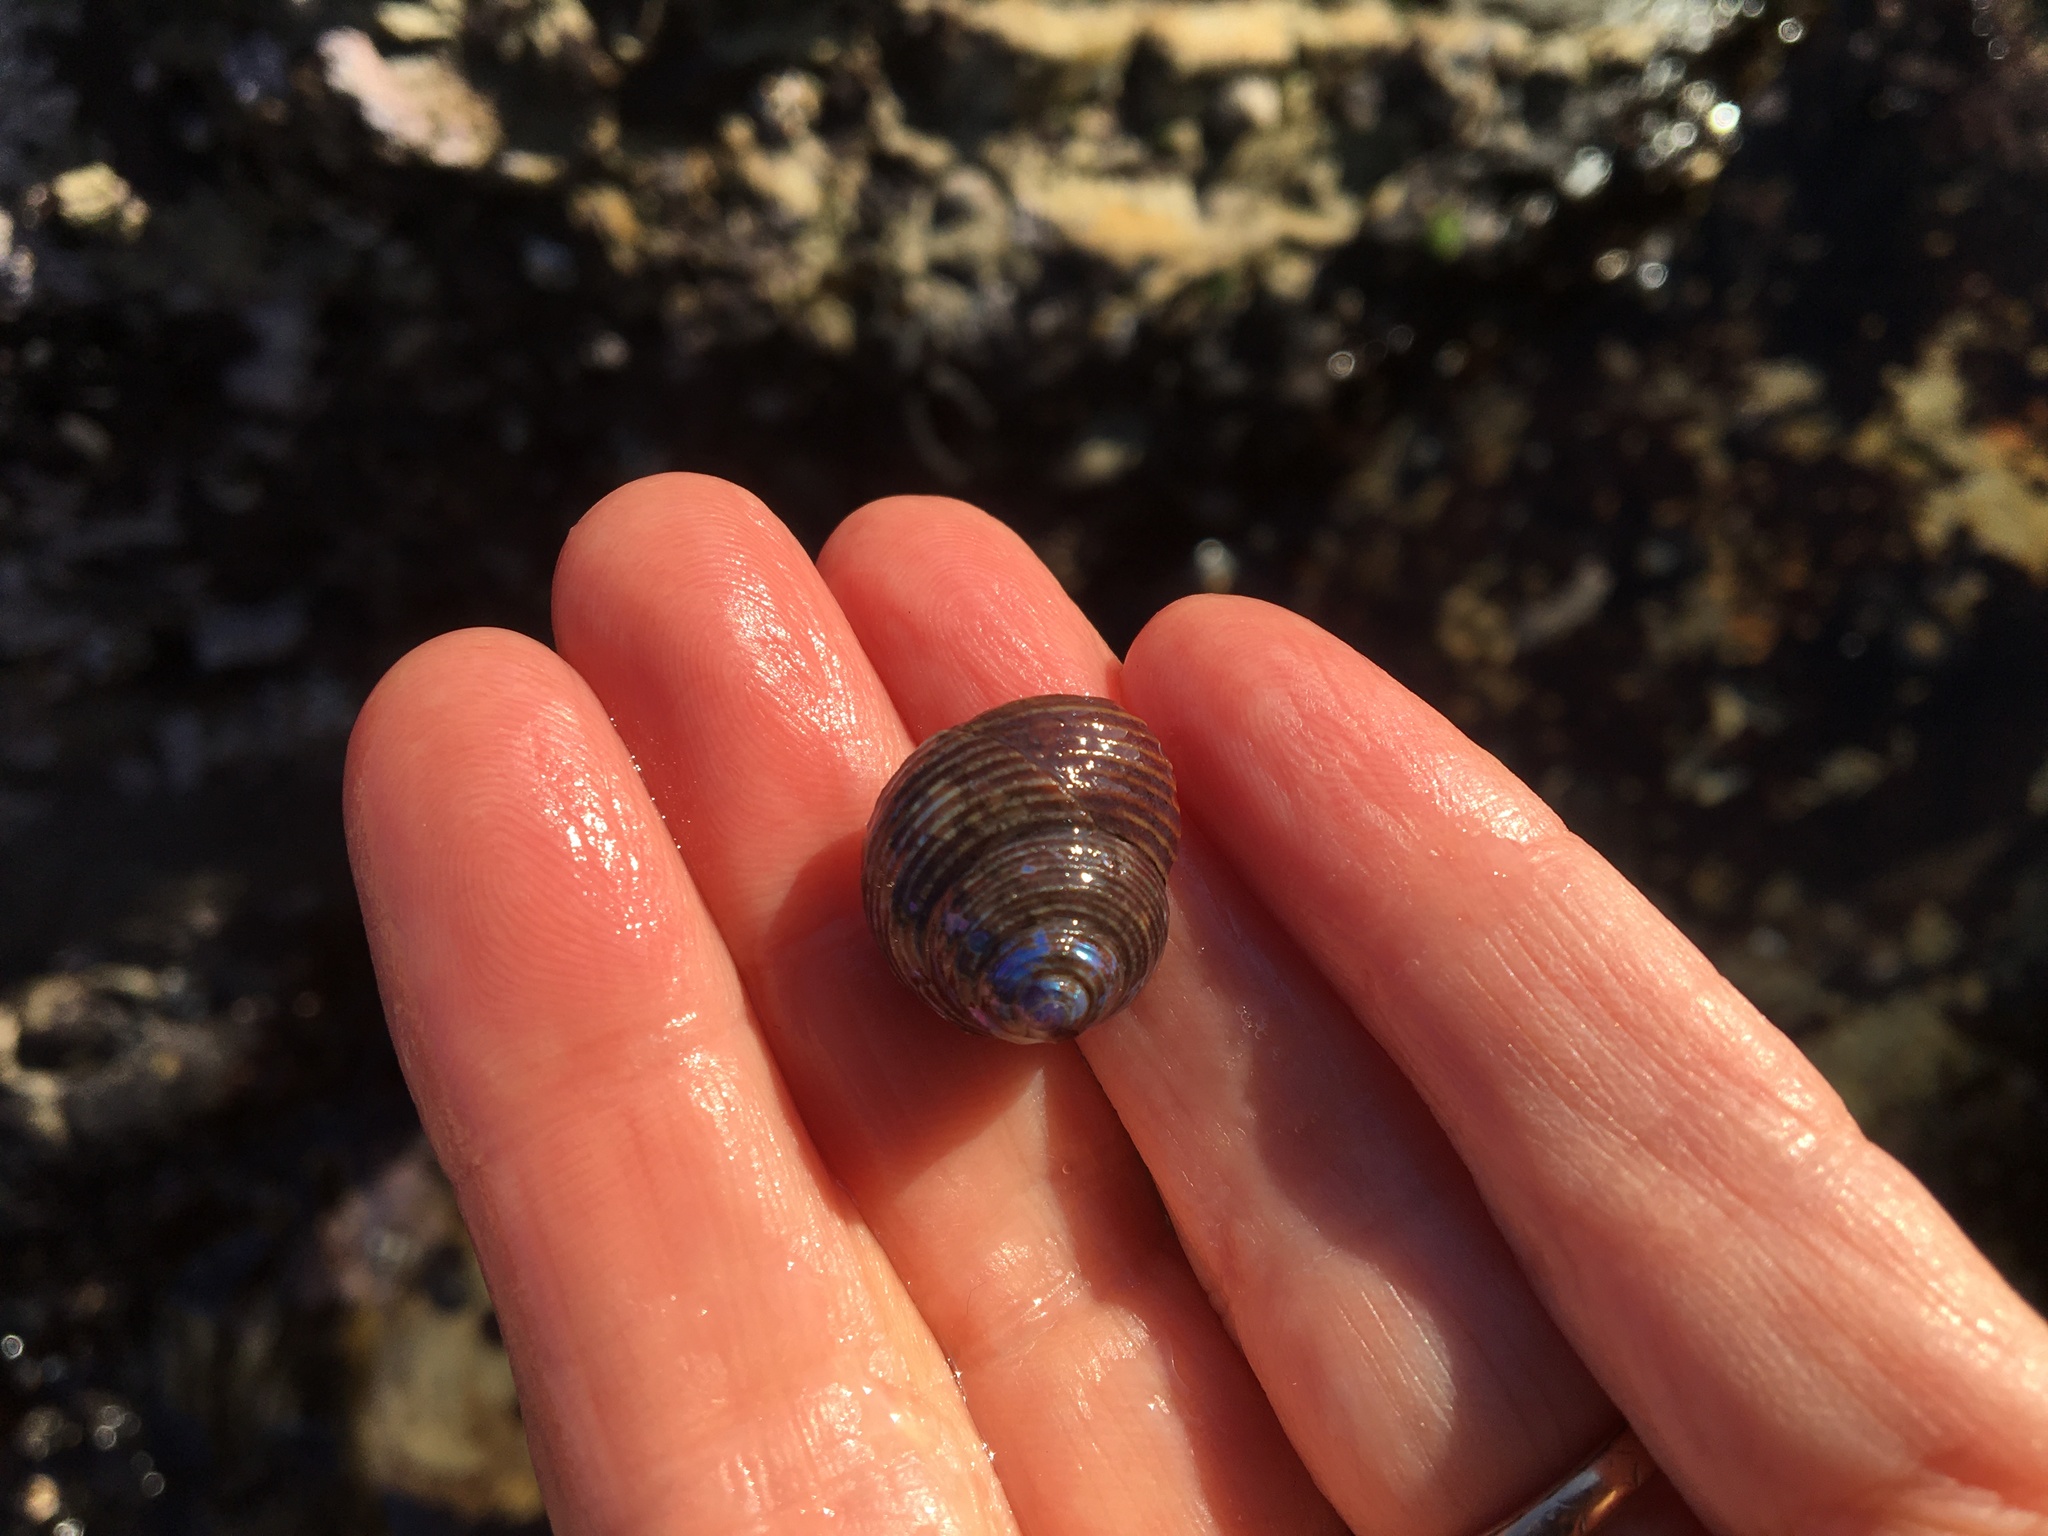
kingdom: Animalia
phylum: Mollusca
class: Gastropoda
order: Trochida
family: Calliostomatidae
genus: Calliostoma
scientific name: Calliostoma ligatum
